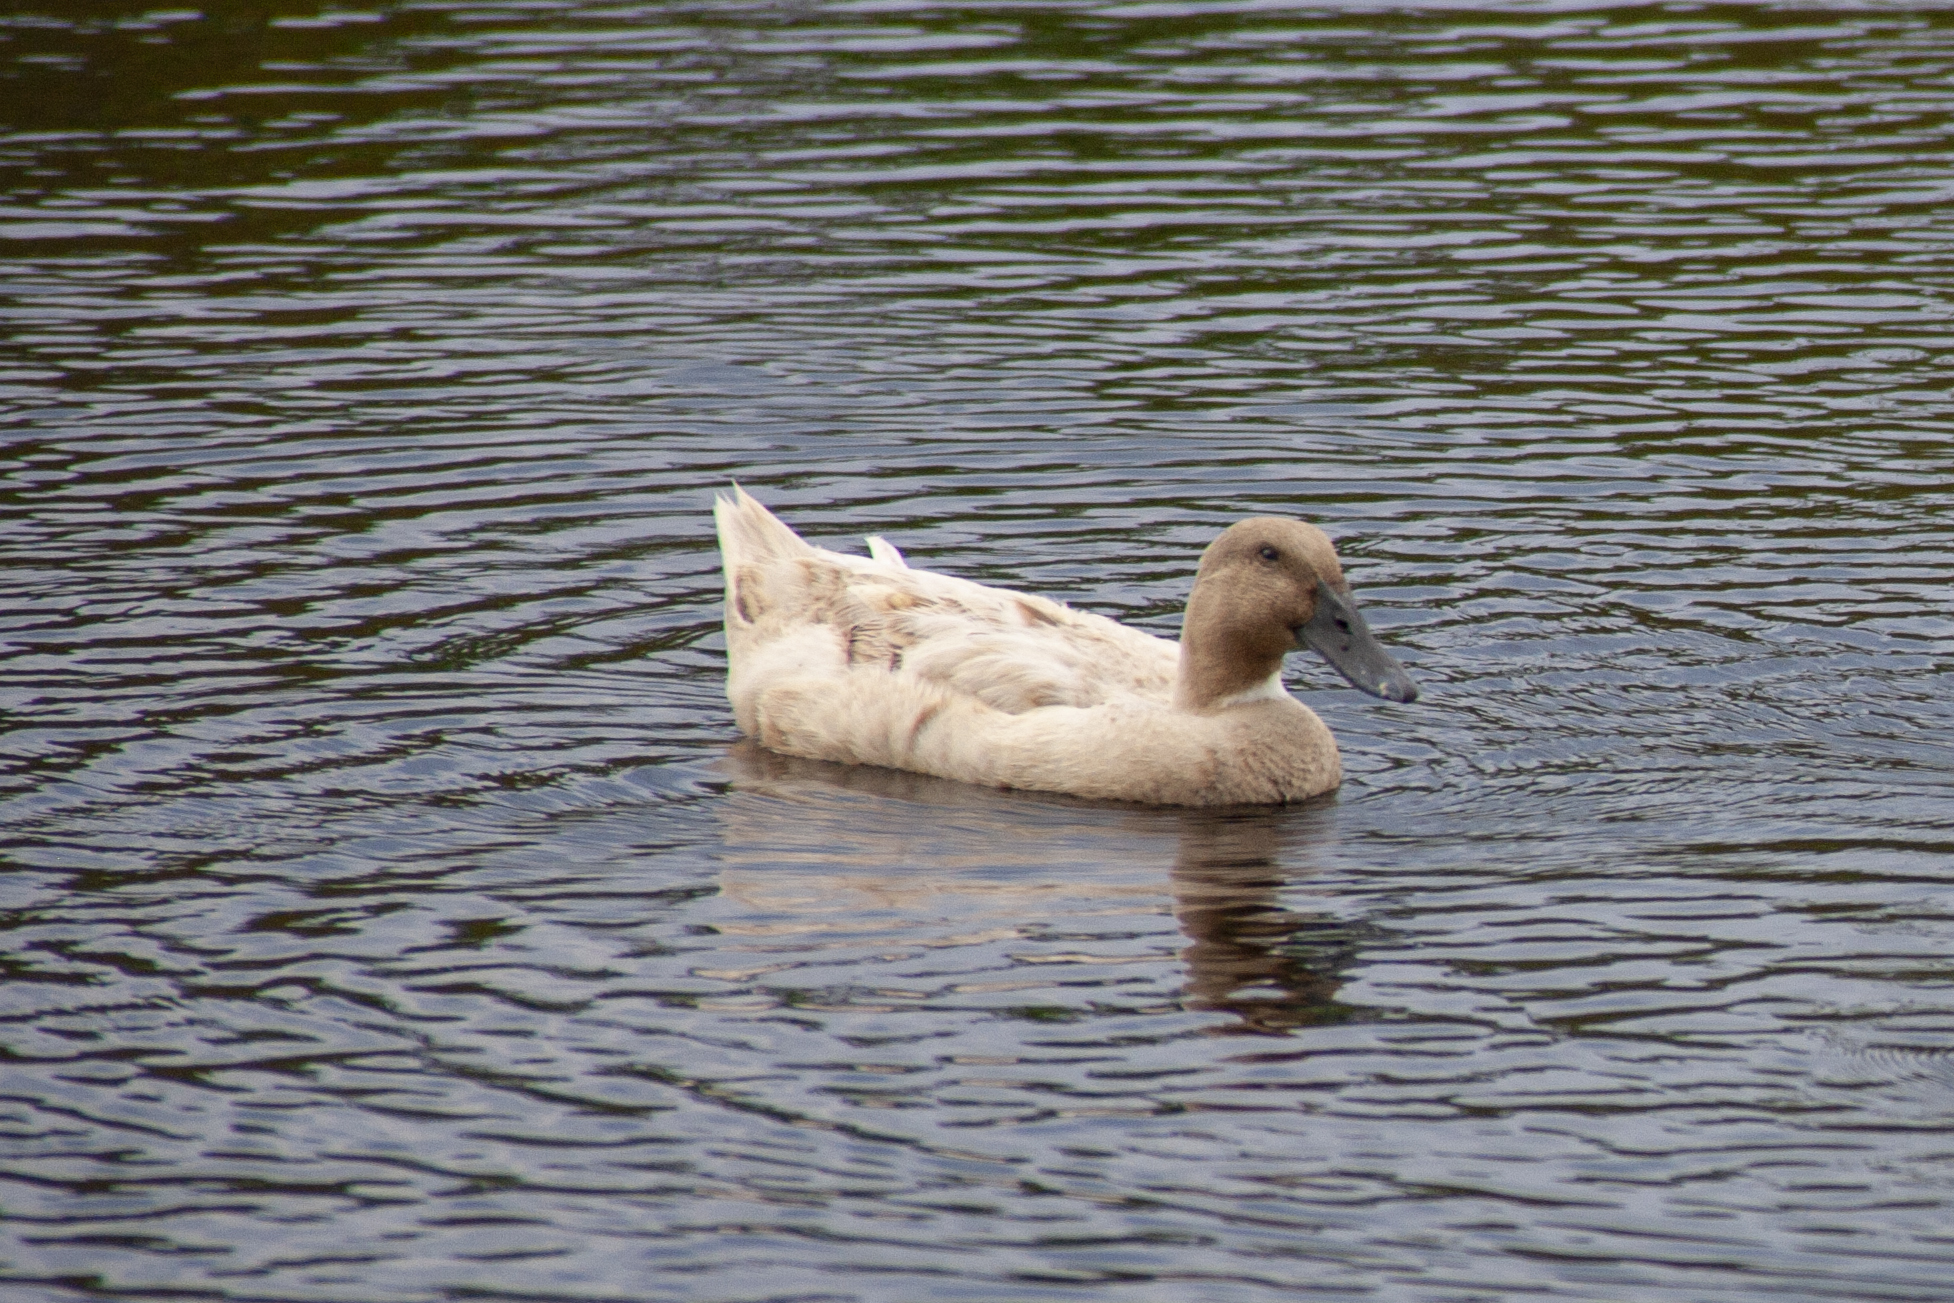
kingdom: Animalia
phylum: Chordata
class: Aves
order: Anseriformes
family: Anatidae
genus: Anas
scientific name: Anas platyrhynchos
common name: Mallard
